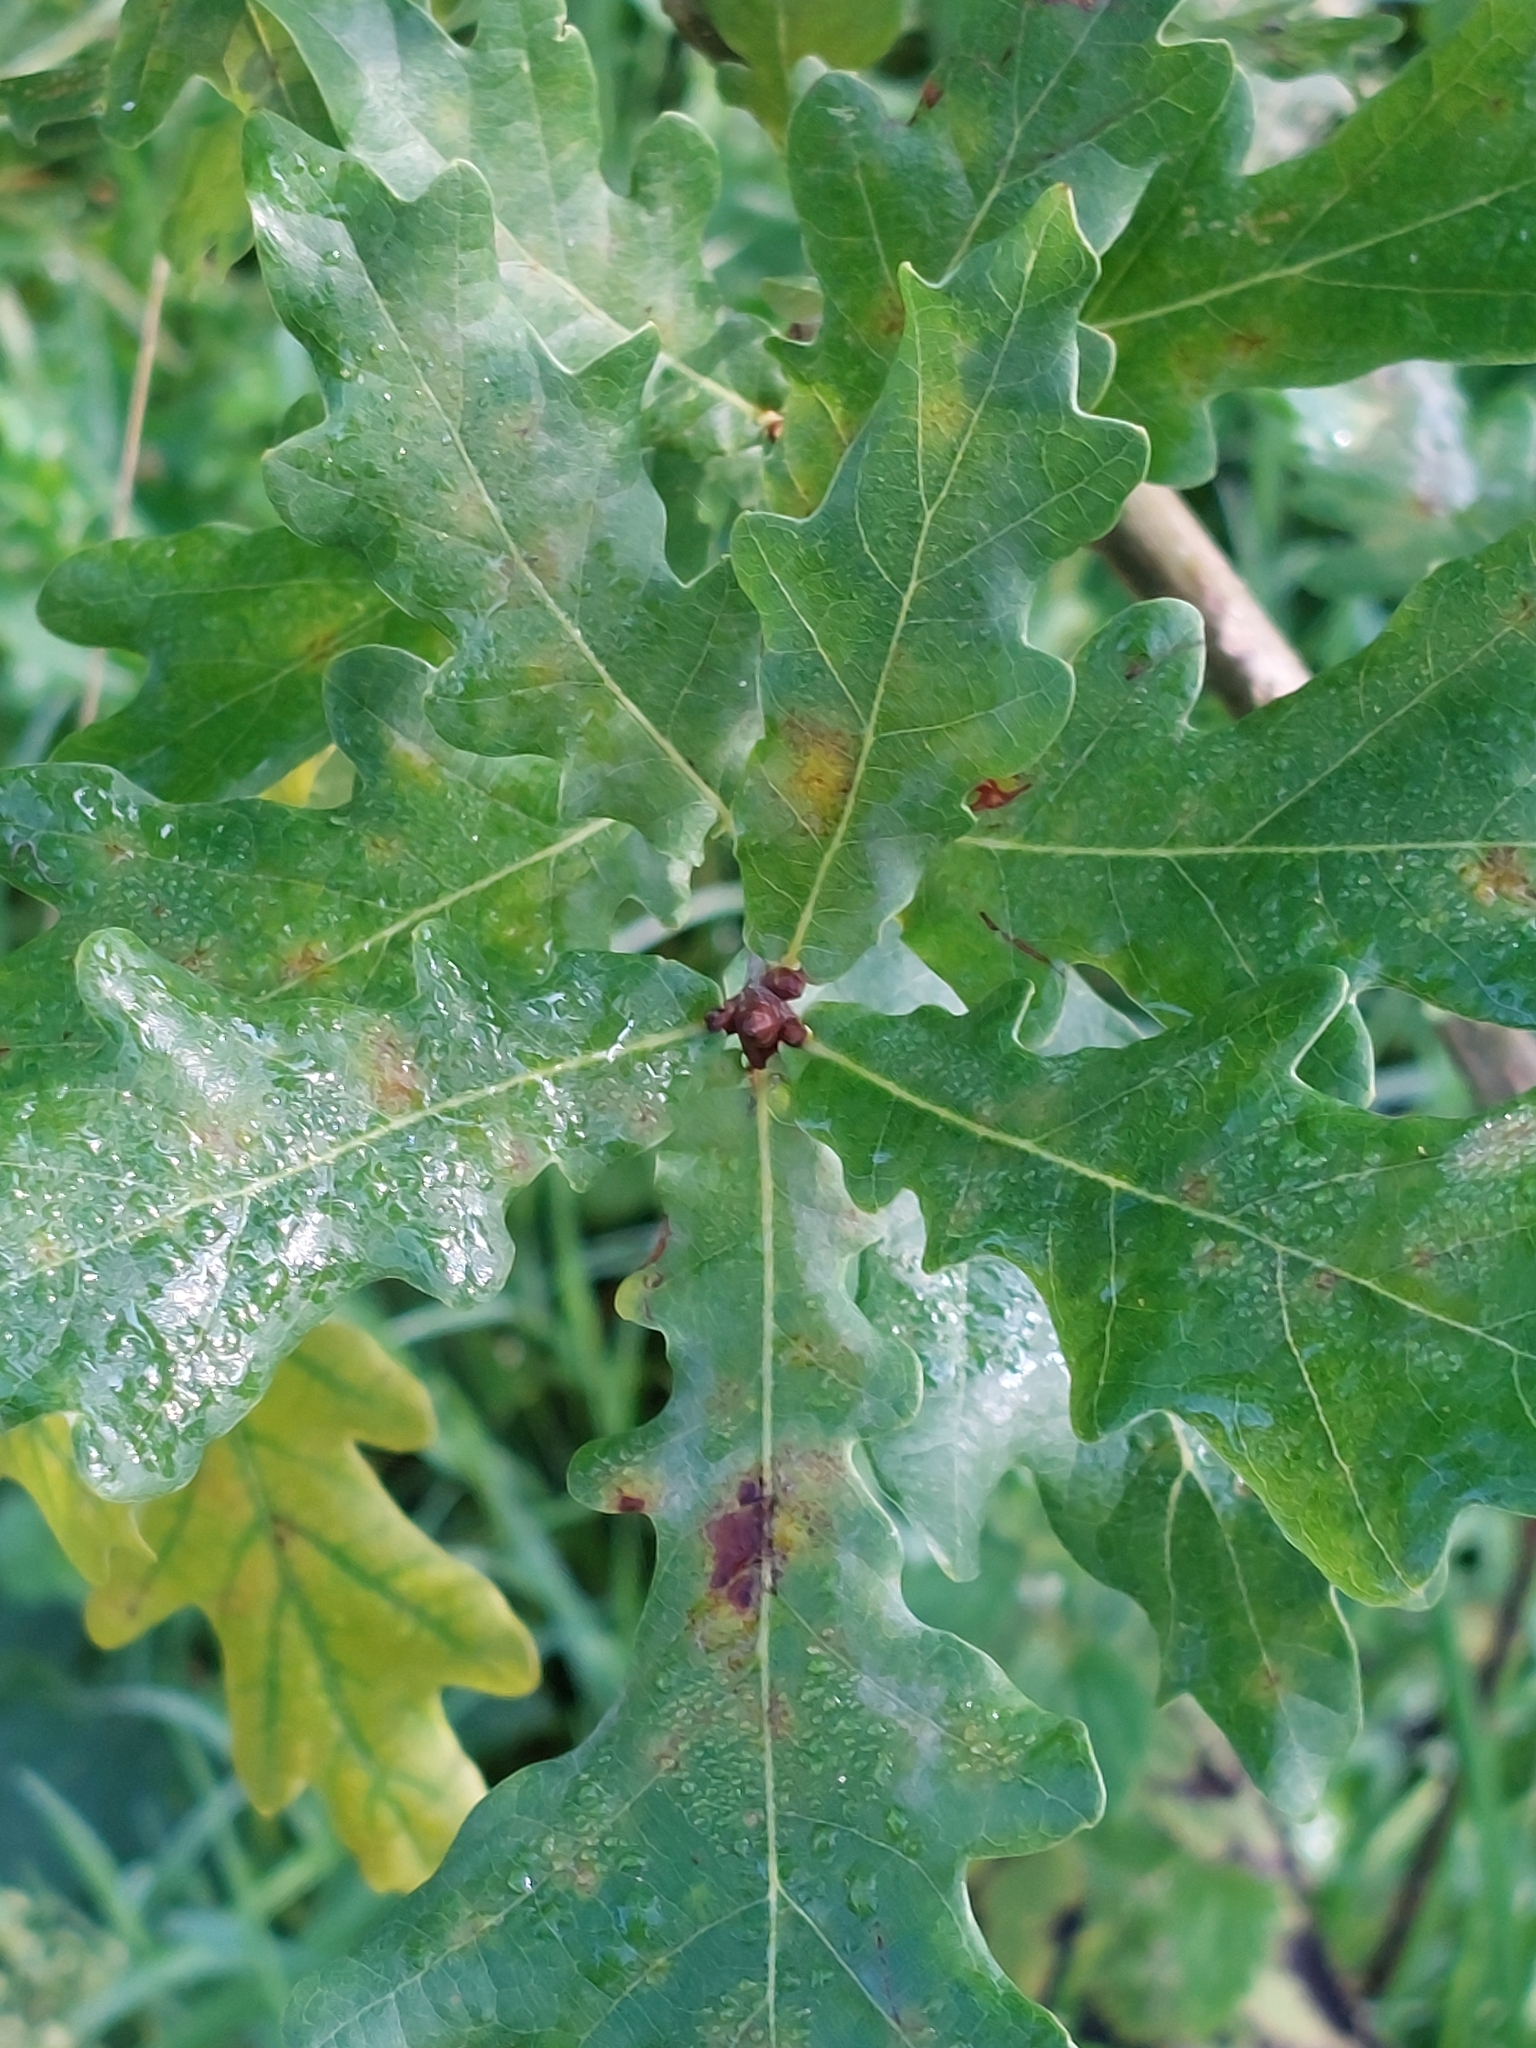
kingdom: Plantae
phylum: Tracheophyta
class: Magnoliopsida
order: Fagales
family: Fagaceae
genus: Quercus
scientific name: Quercus robur
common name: Pedunculate oak
